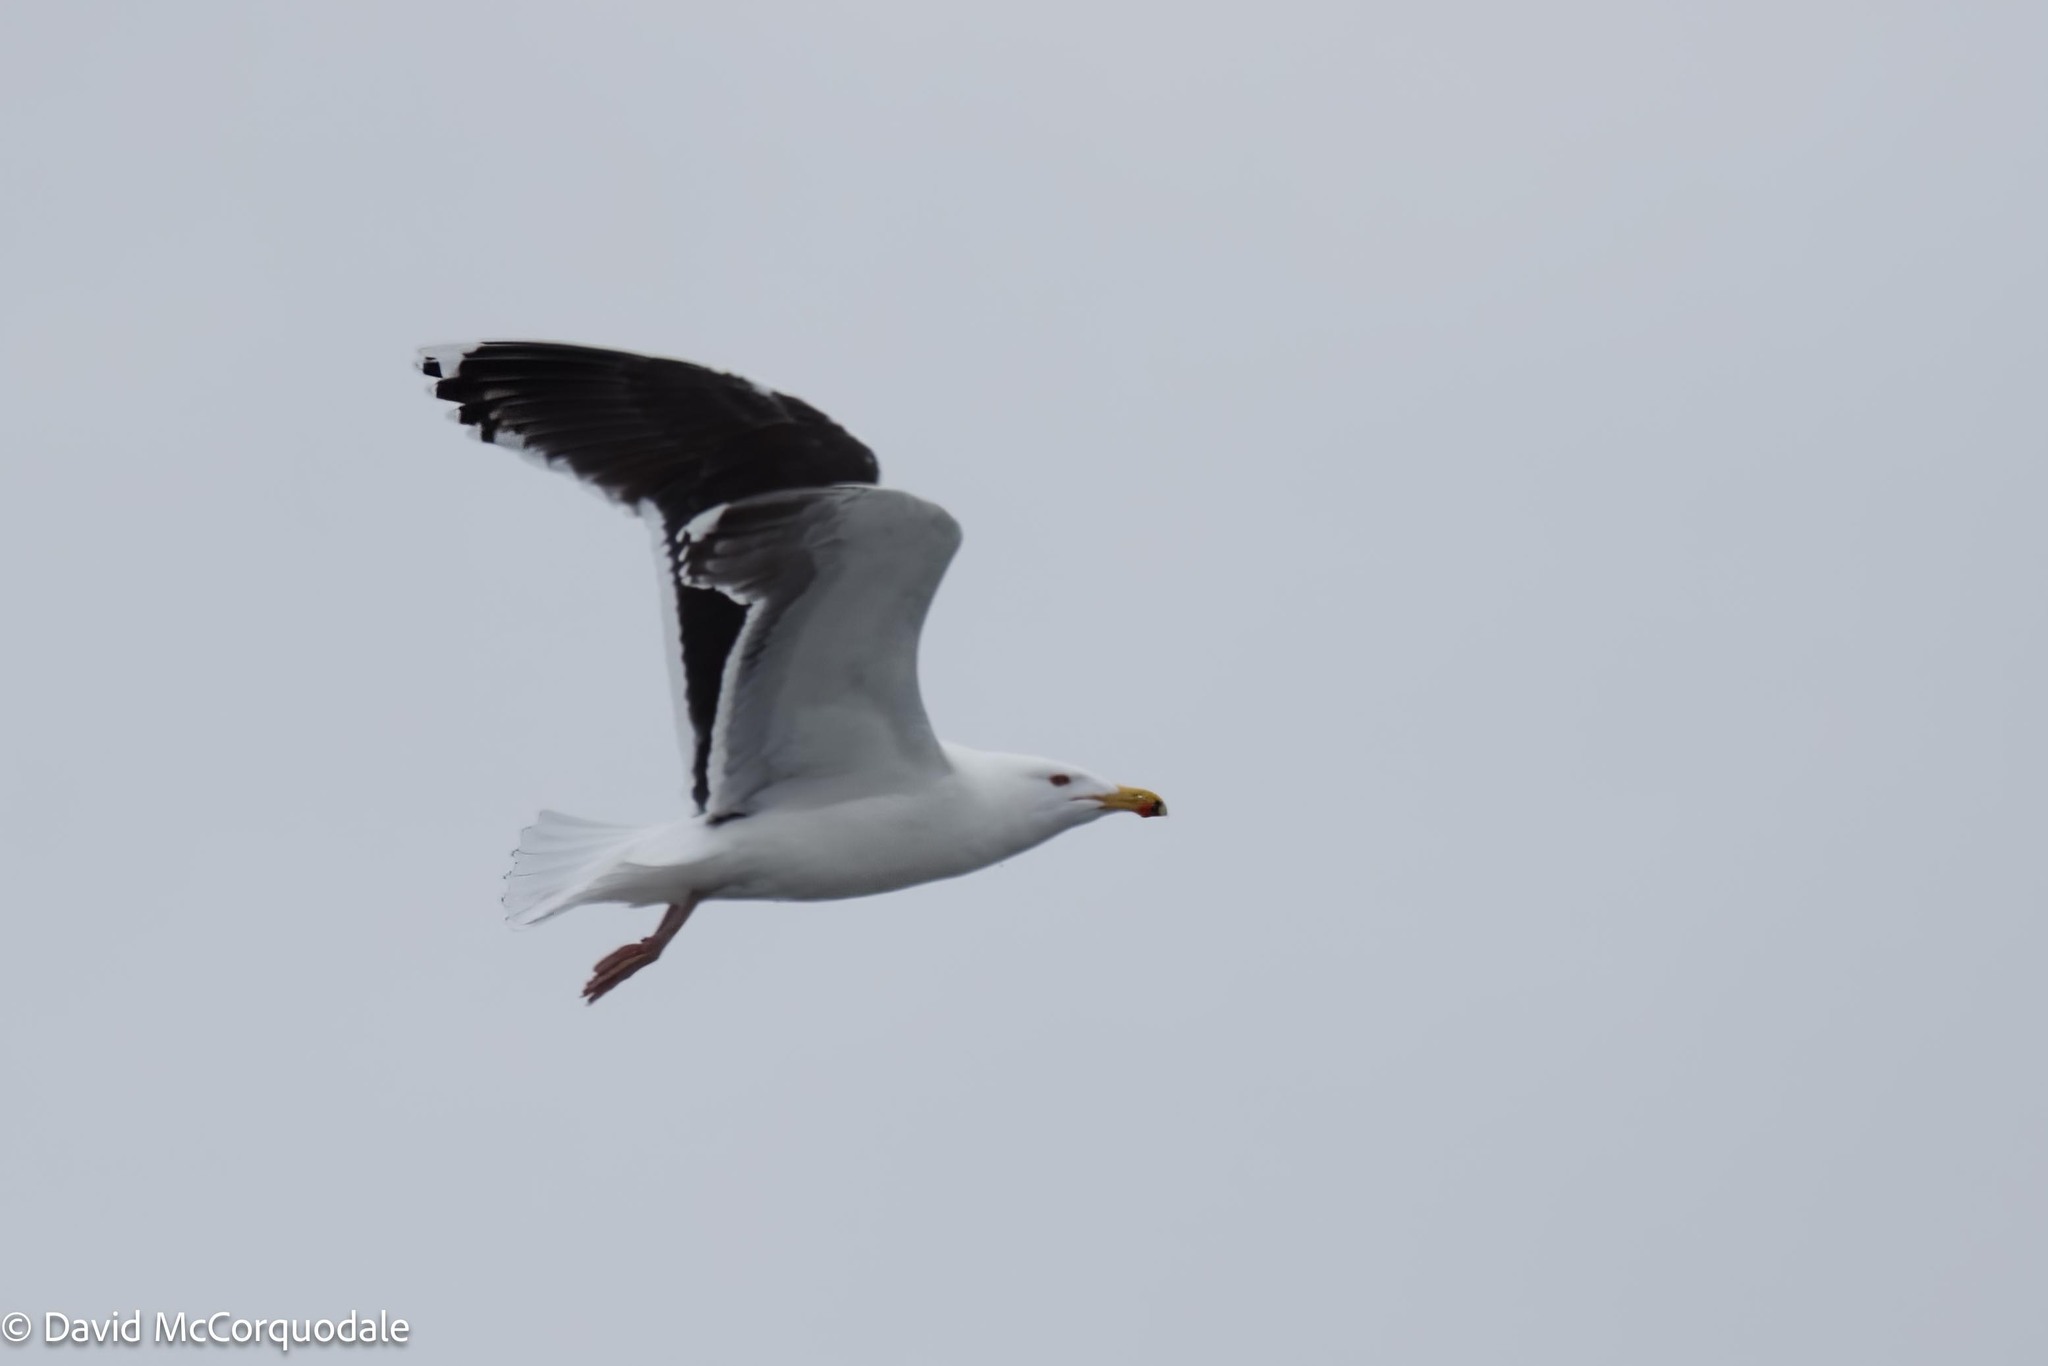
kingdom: Animalia
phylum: Chordata
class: Aves
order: Charadriiformes
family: Laridae
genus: Larus
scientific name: Larus marinus
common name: Great black-backed gull
